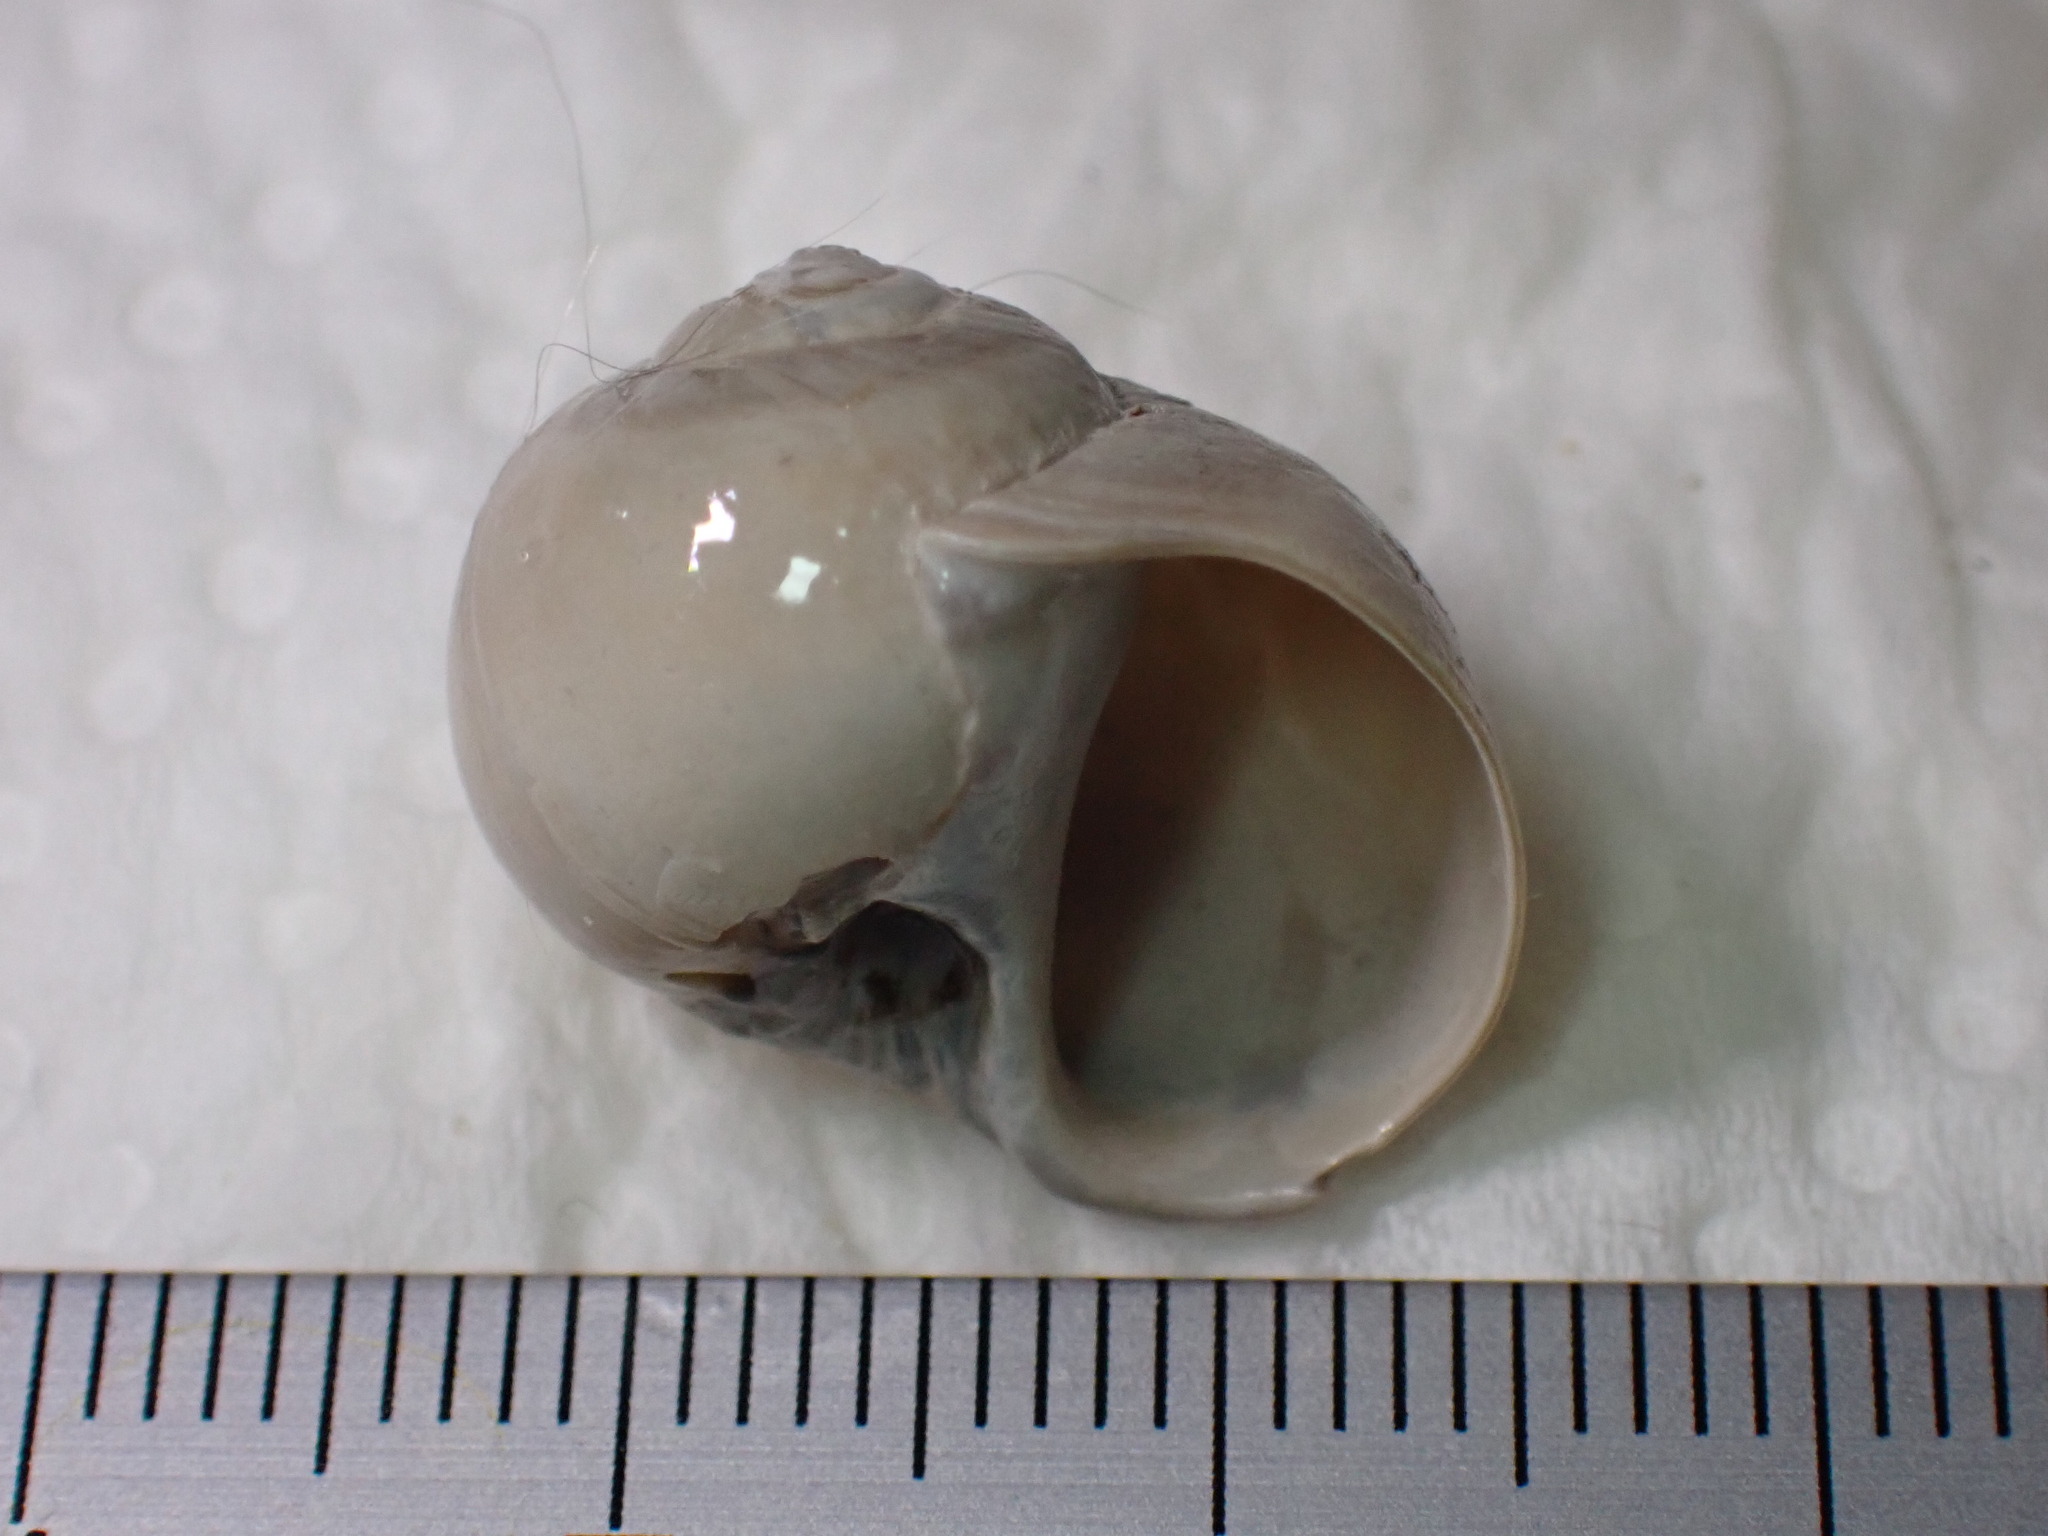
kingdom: Animalia
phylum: Mollusca
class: Gastropoda
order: Littorinimorpha
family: Naticidae
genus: Euspira
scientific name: Euspira catena
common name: Necklace shell
